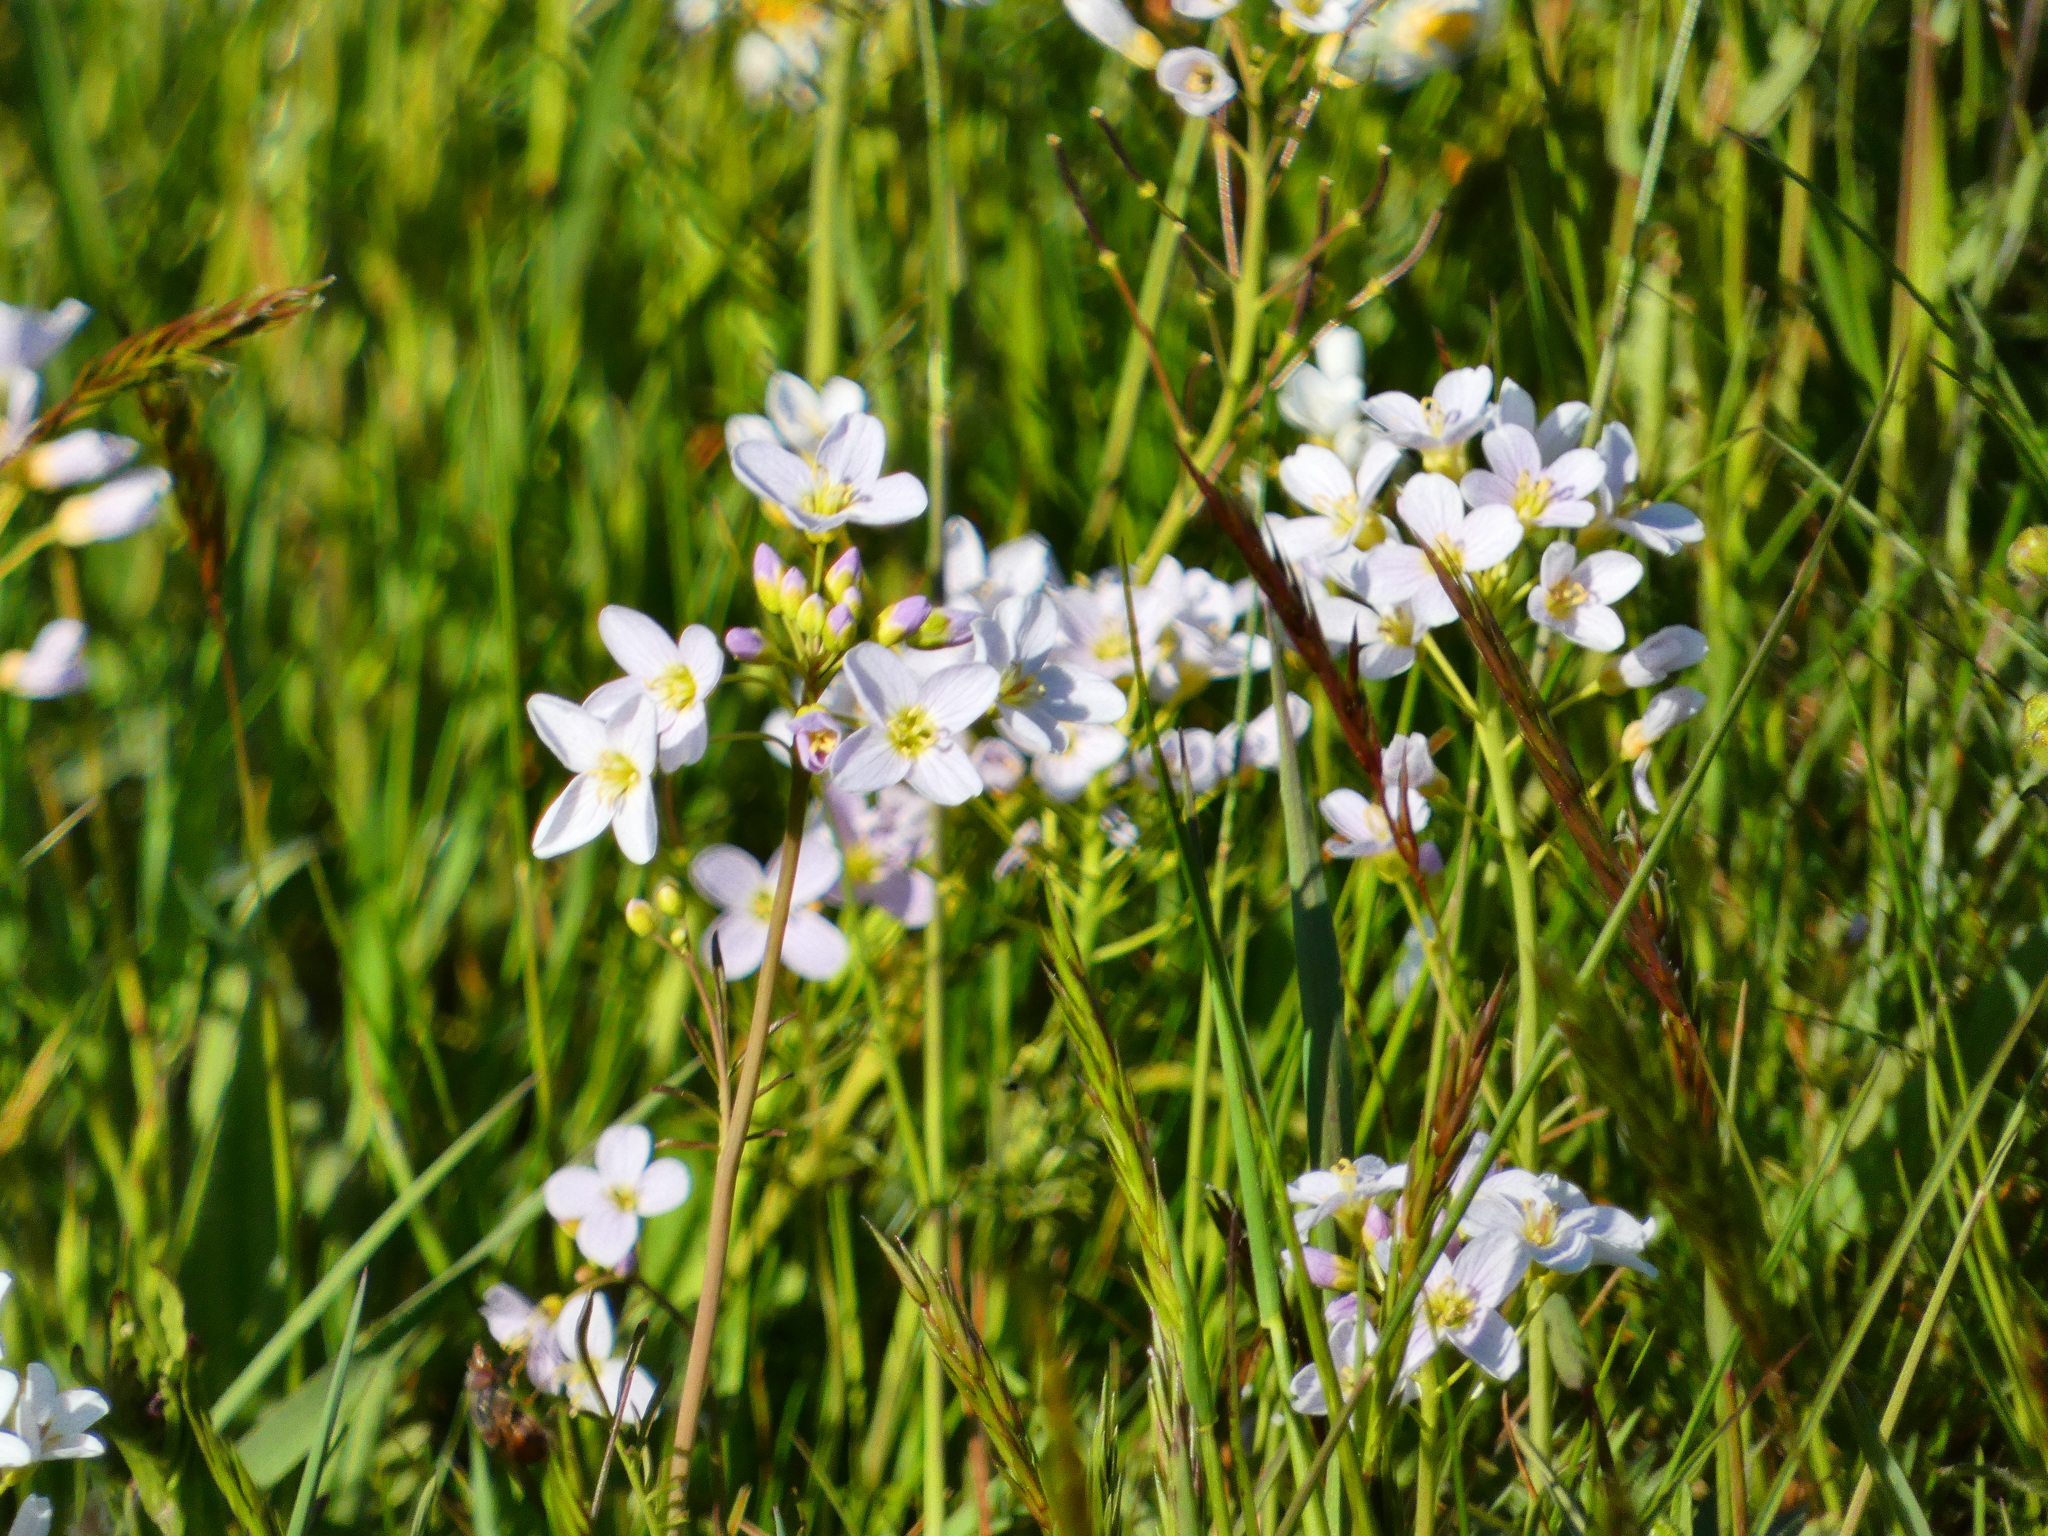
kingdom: Plantae
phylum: Tracheophyta
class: Magnoliopsida
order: Brassicales
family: Brassicaceae
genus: Cardamine
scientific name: Cardamine pratensis
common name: Cuckoo flower
